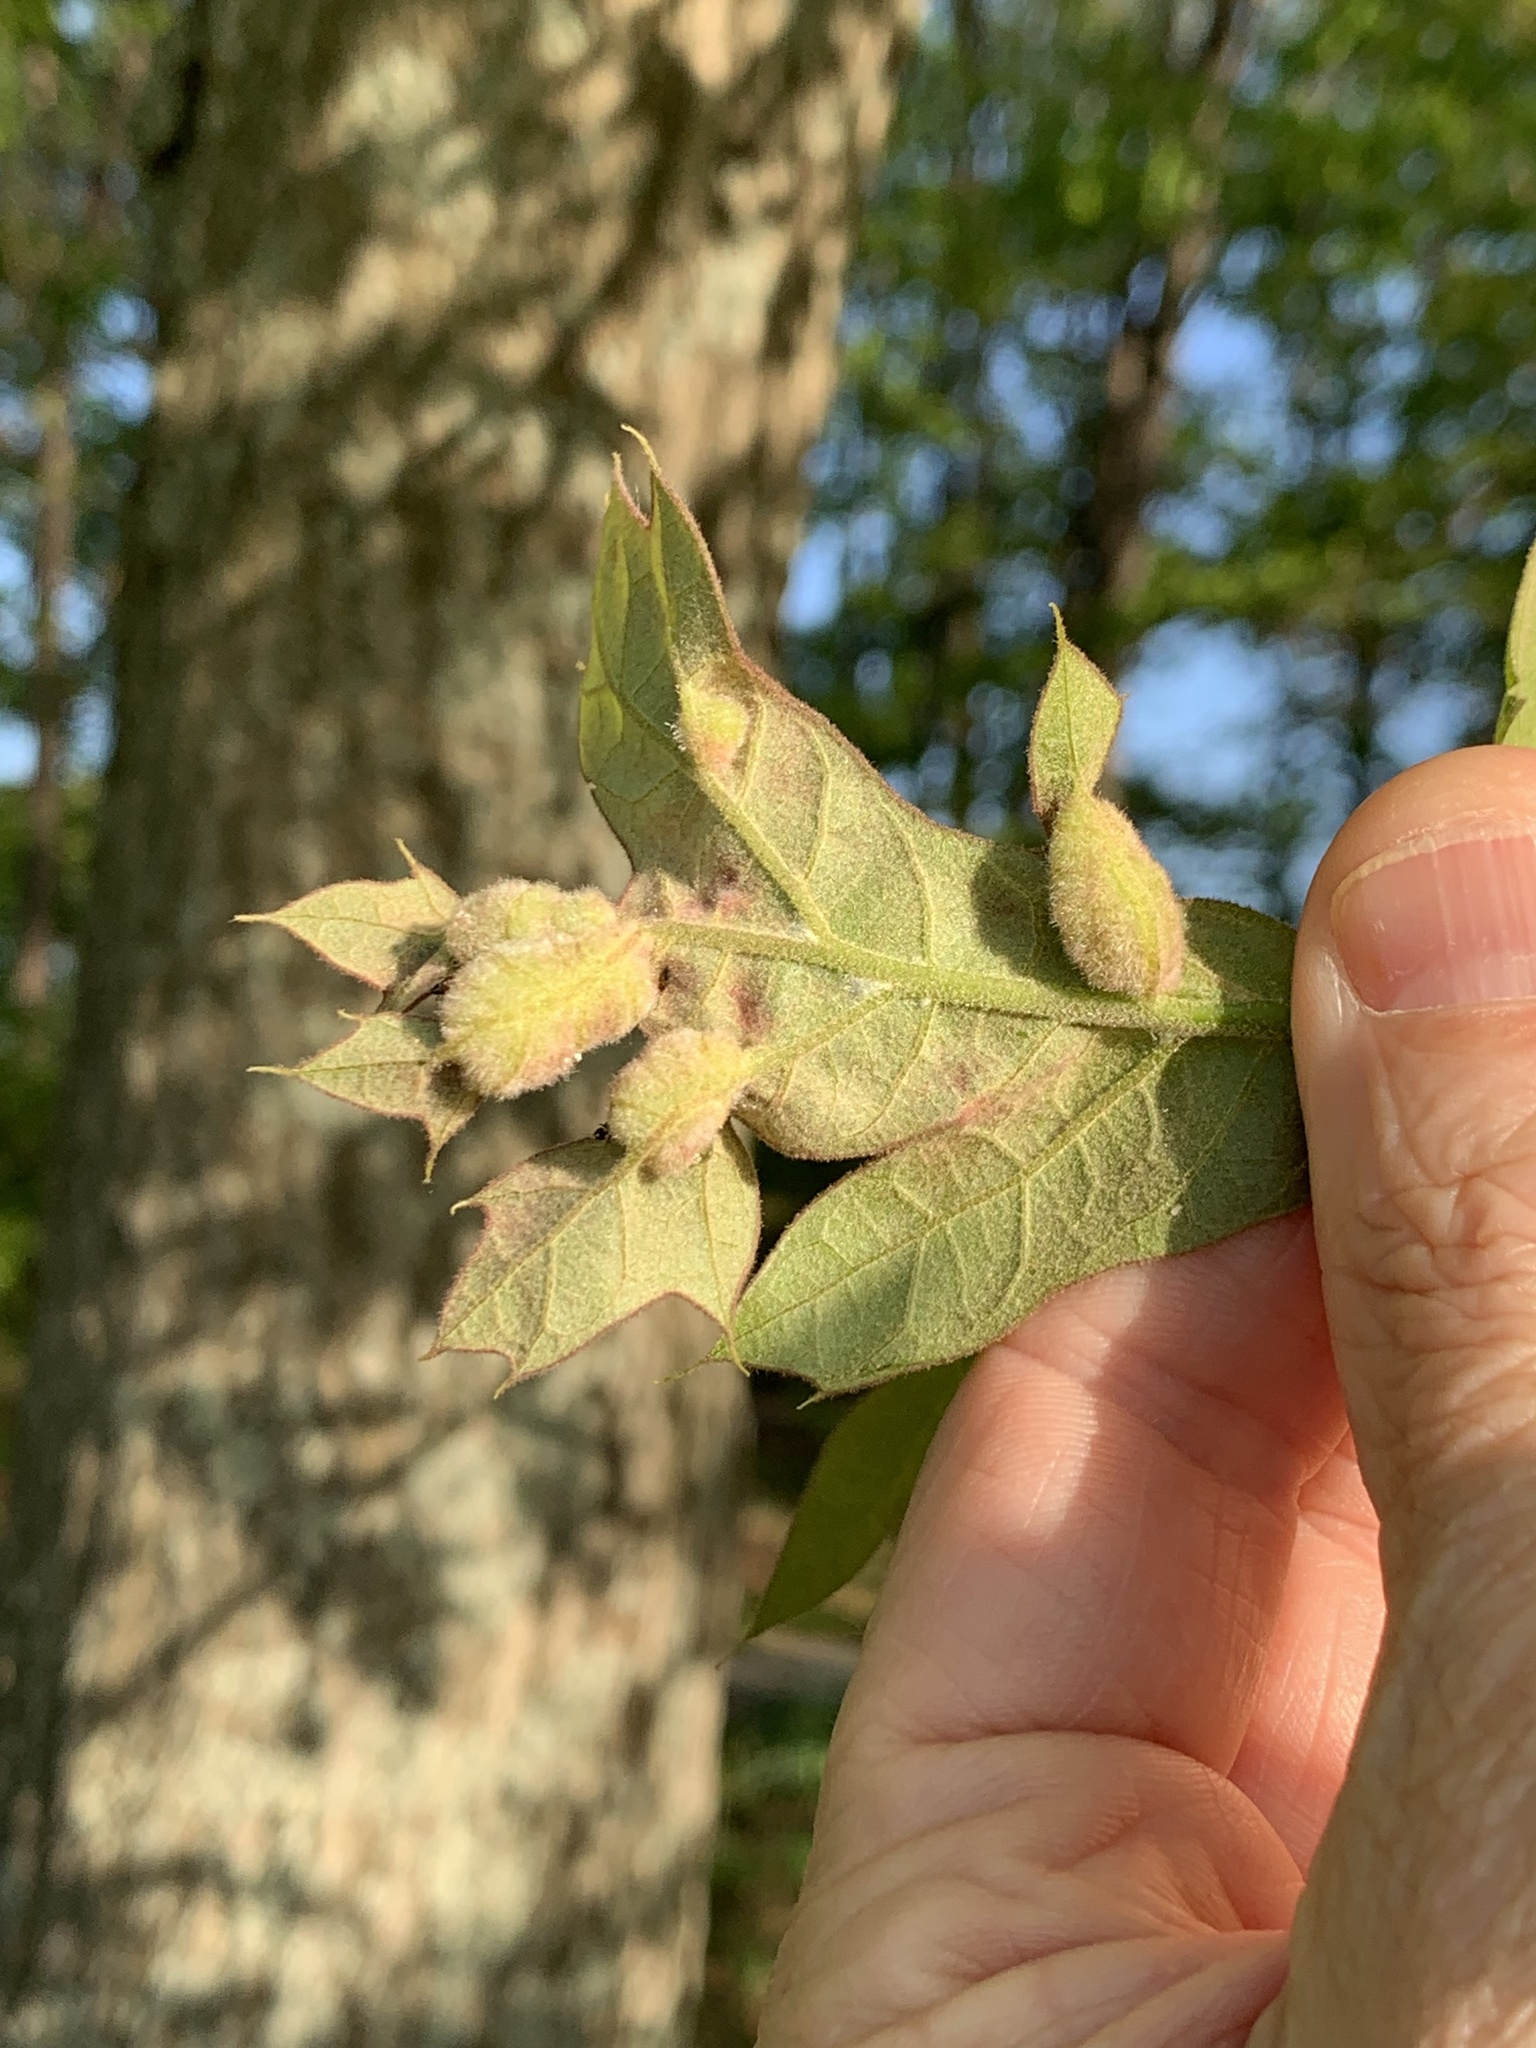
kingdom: Animalia
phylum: Arthropoda
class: Insecta
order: Diptera
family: Cecidomyiidae
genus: Macrodiplosis
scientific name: Macrodiplosis niveipila
